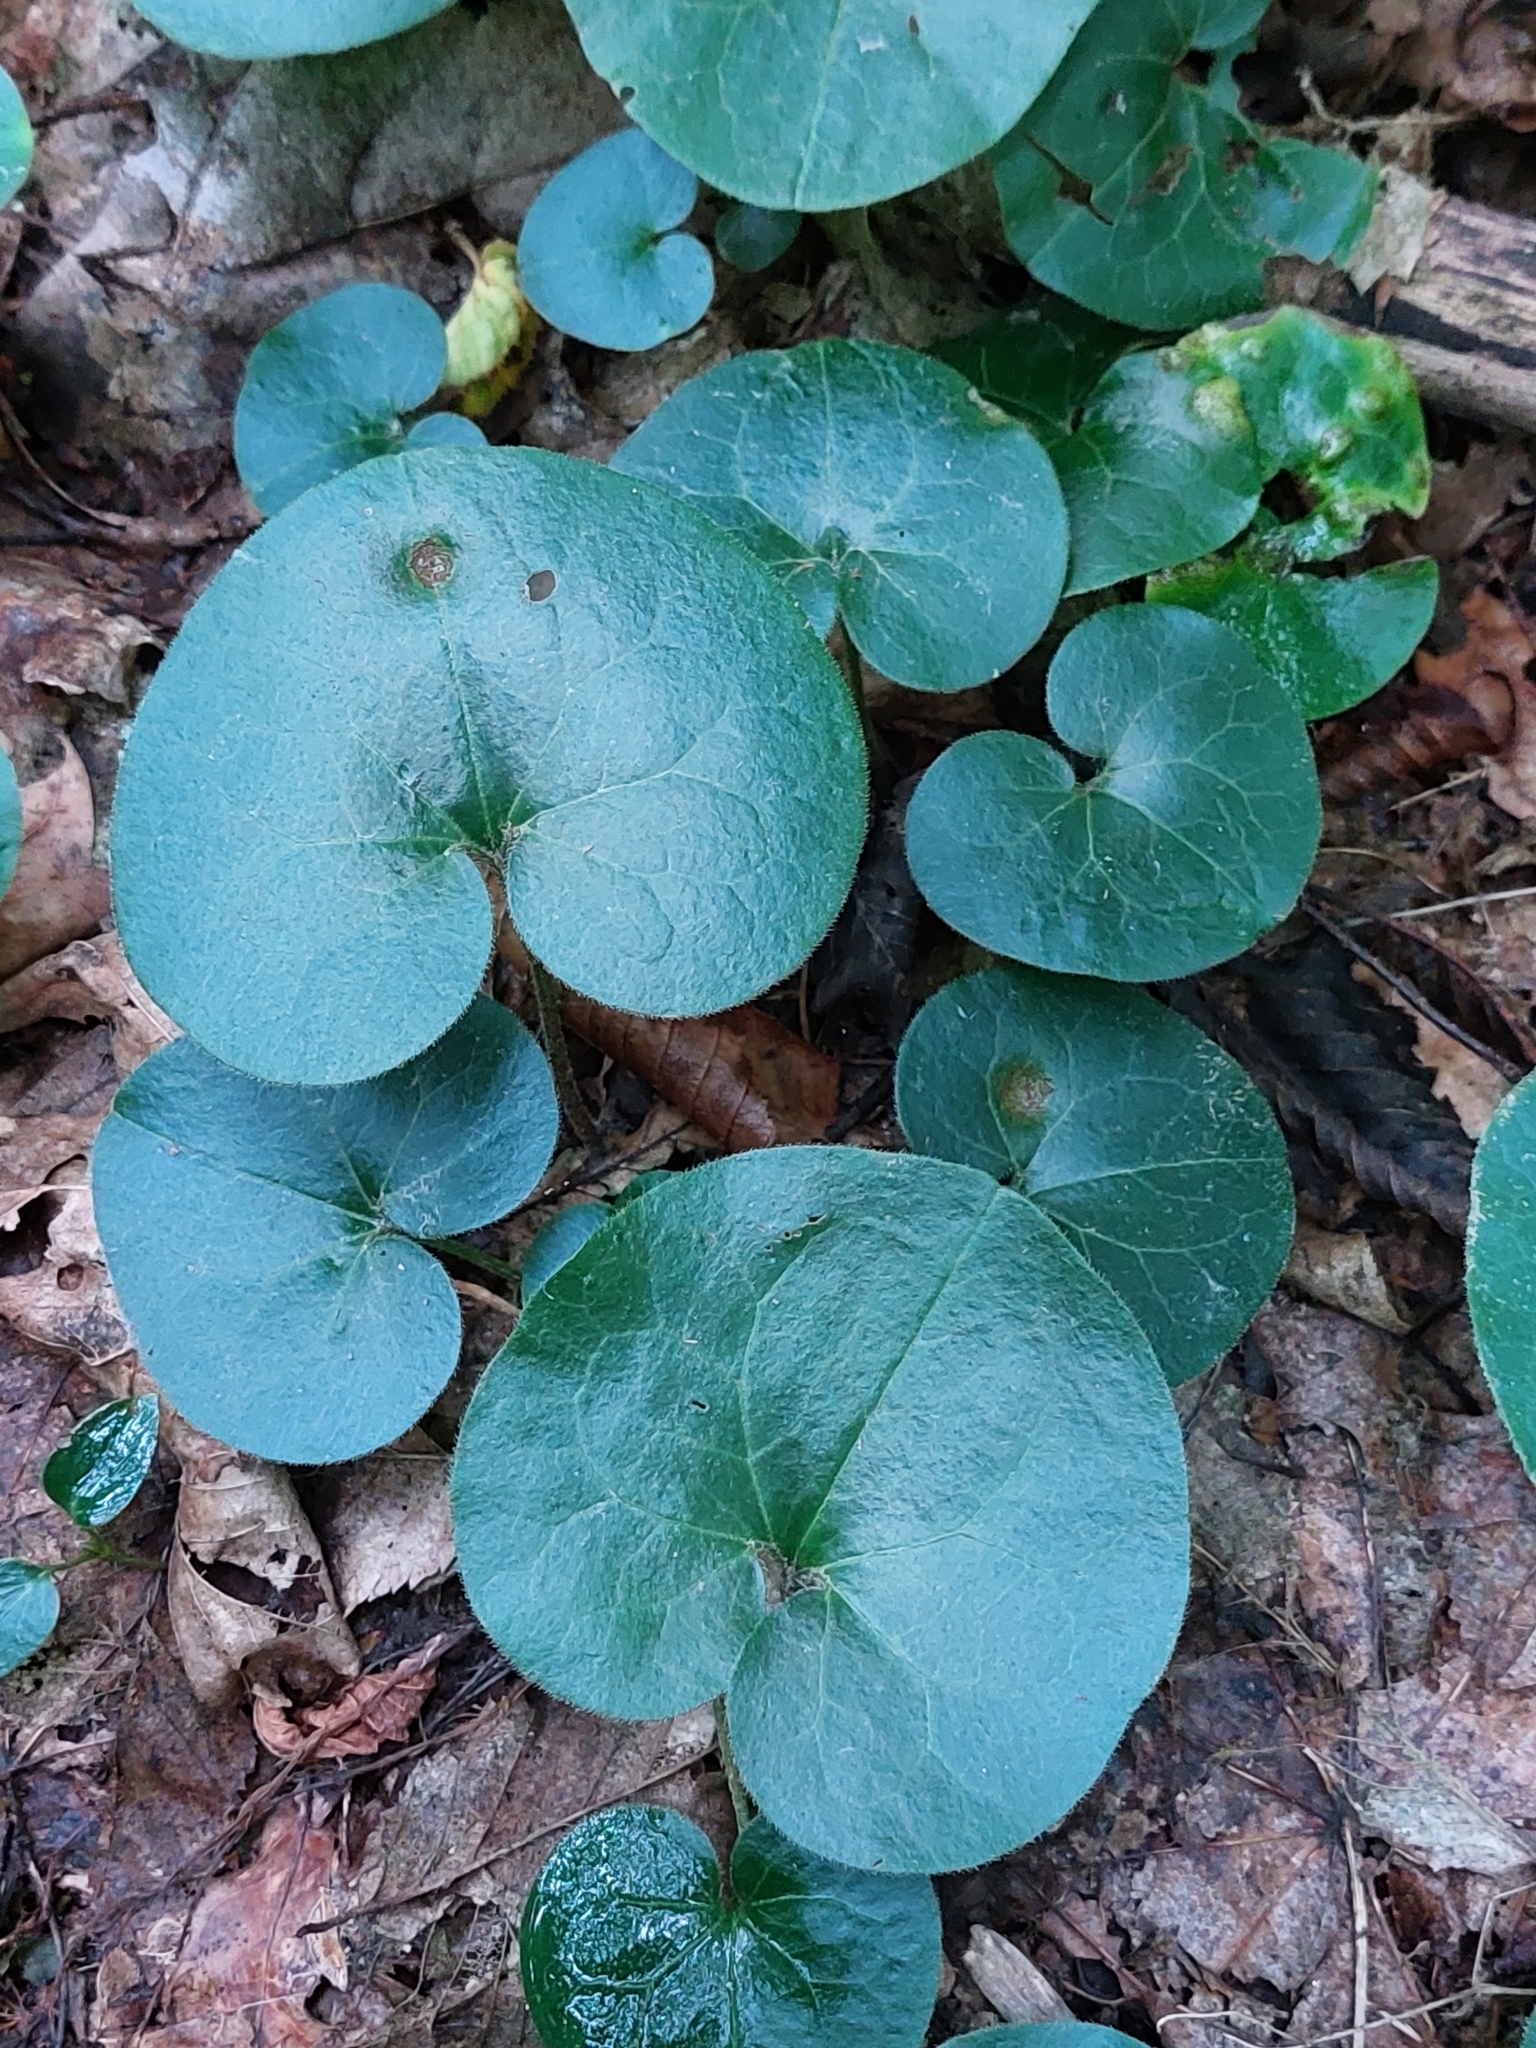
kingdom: Plantae
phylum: Tracheophyta
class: Magnoliopsida
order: Piperales
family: Aristolochiaceae
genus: Asarum
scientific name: Asarum europaeum
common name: Asarabacca
